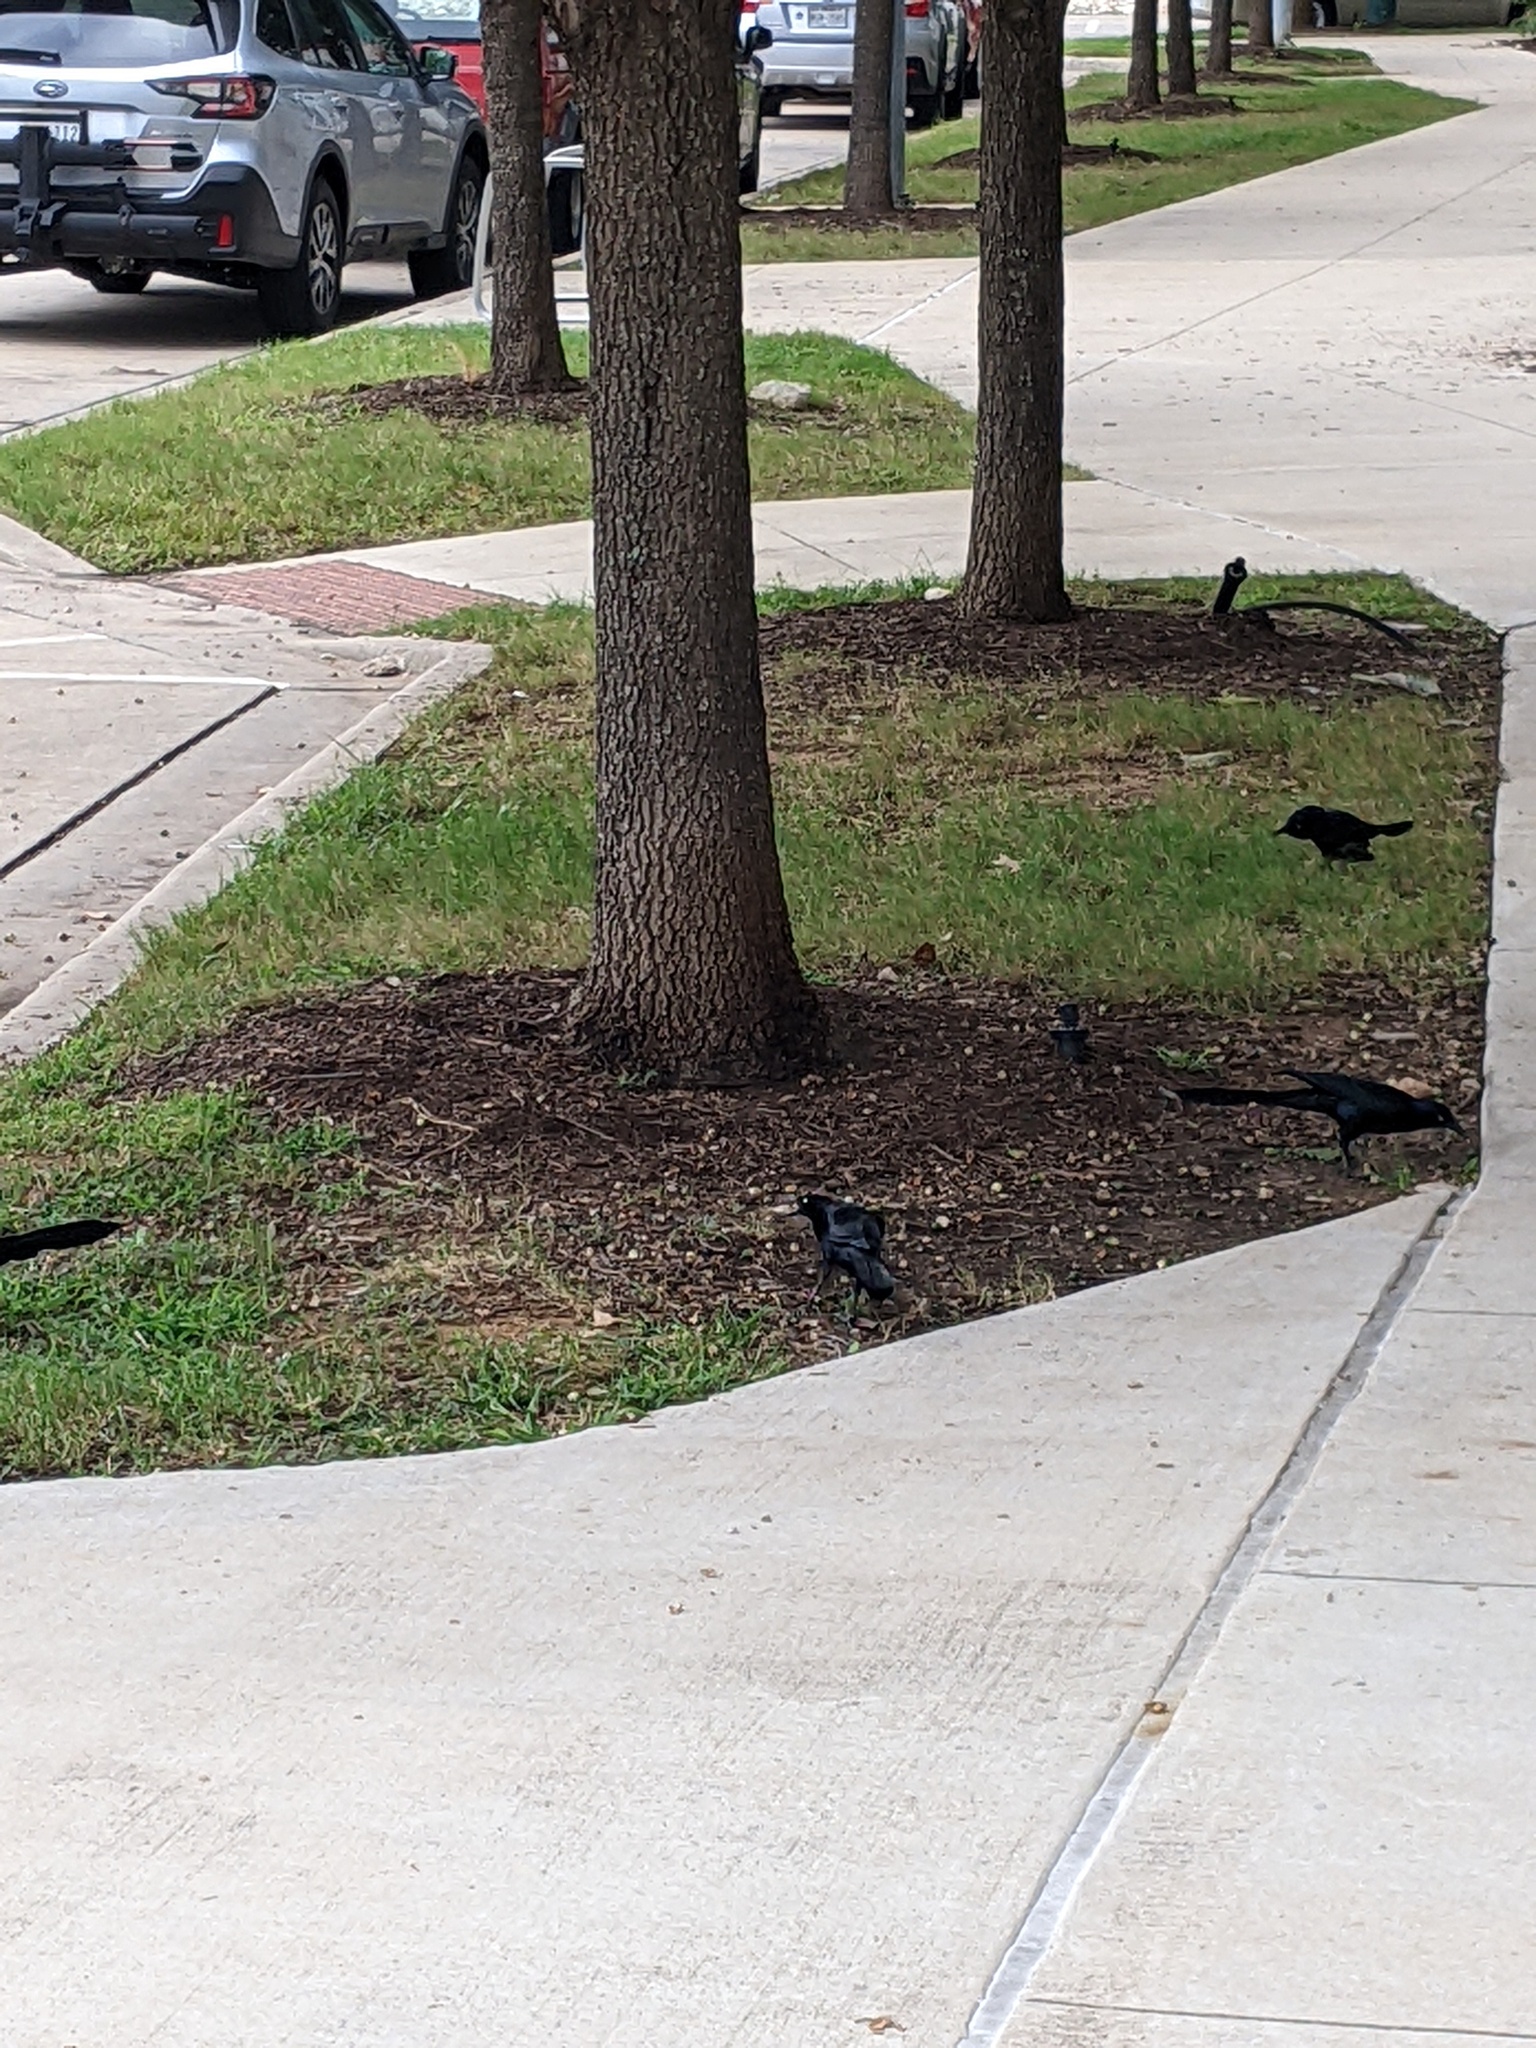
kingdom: Animalia
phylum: Chordata
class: Aves
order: Passeriformes
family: Icteridae
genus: Quiscalus
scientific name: Quiscalus mexicanus
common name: Great-tailed grackle
